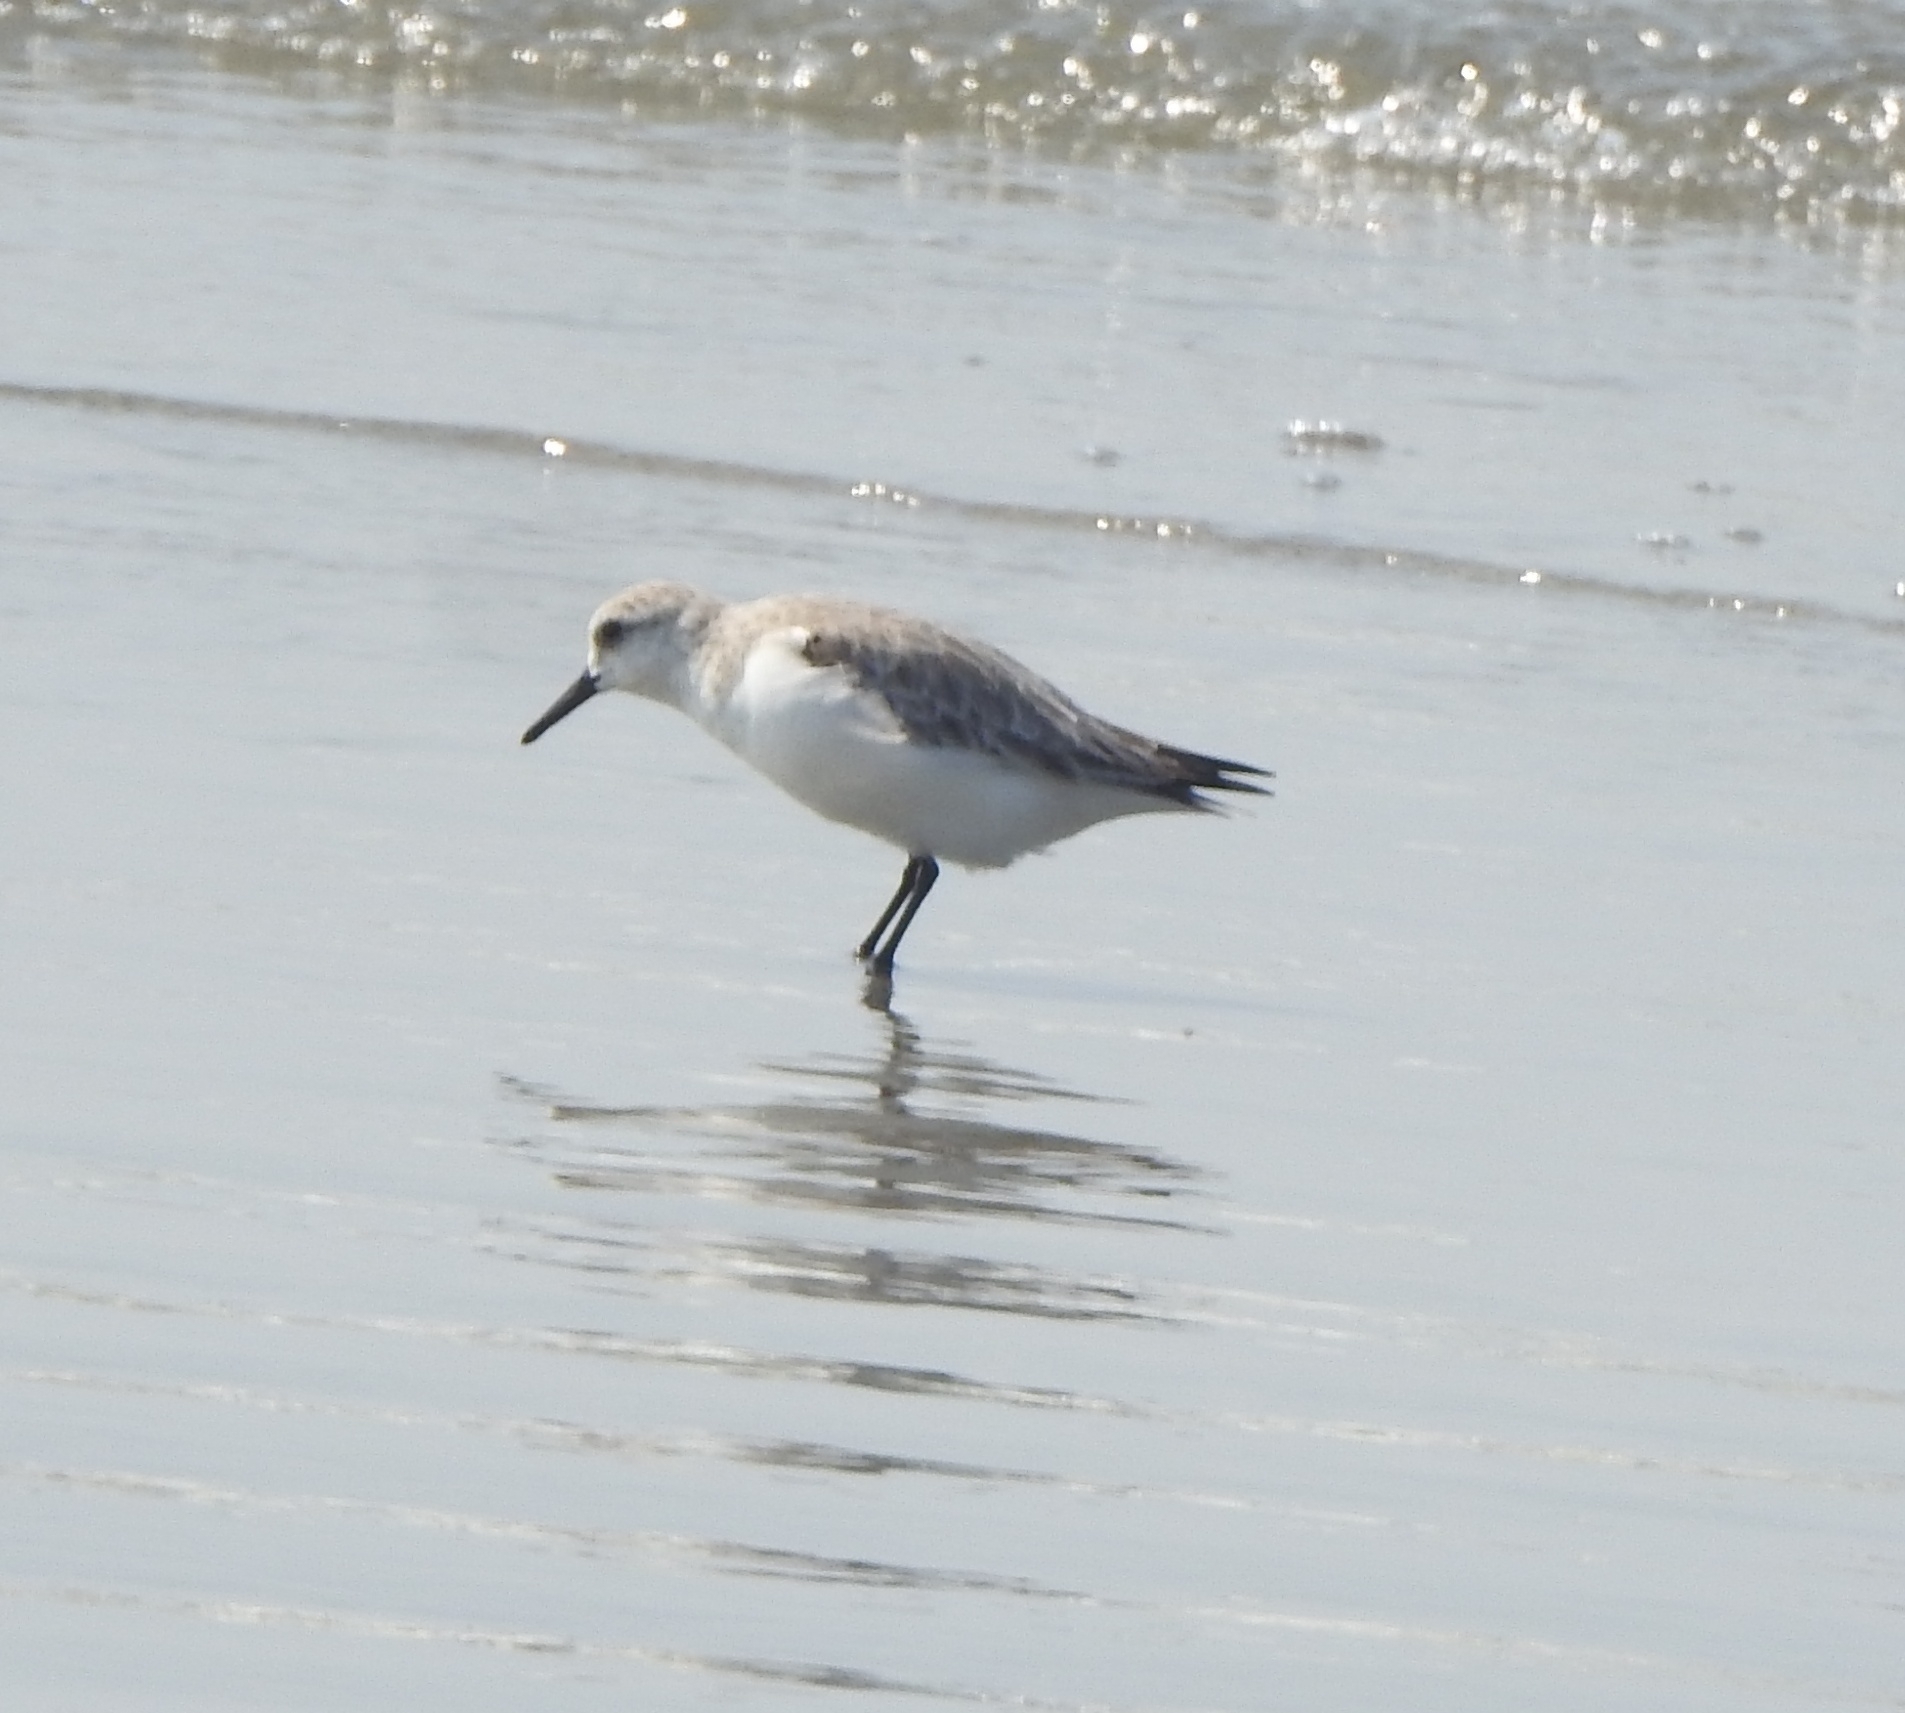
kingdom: Animalia
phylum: Chordata
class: Aves
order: Charadriiformes
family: Scolopacidae
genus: Calidris
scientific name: Calidris alba
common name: Sanderling
